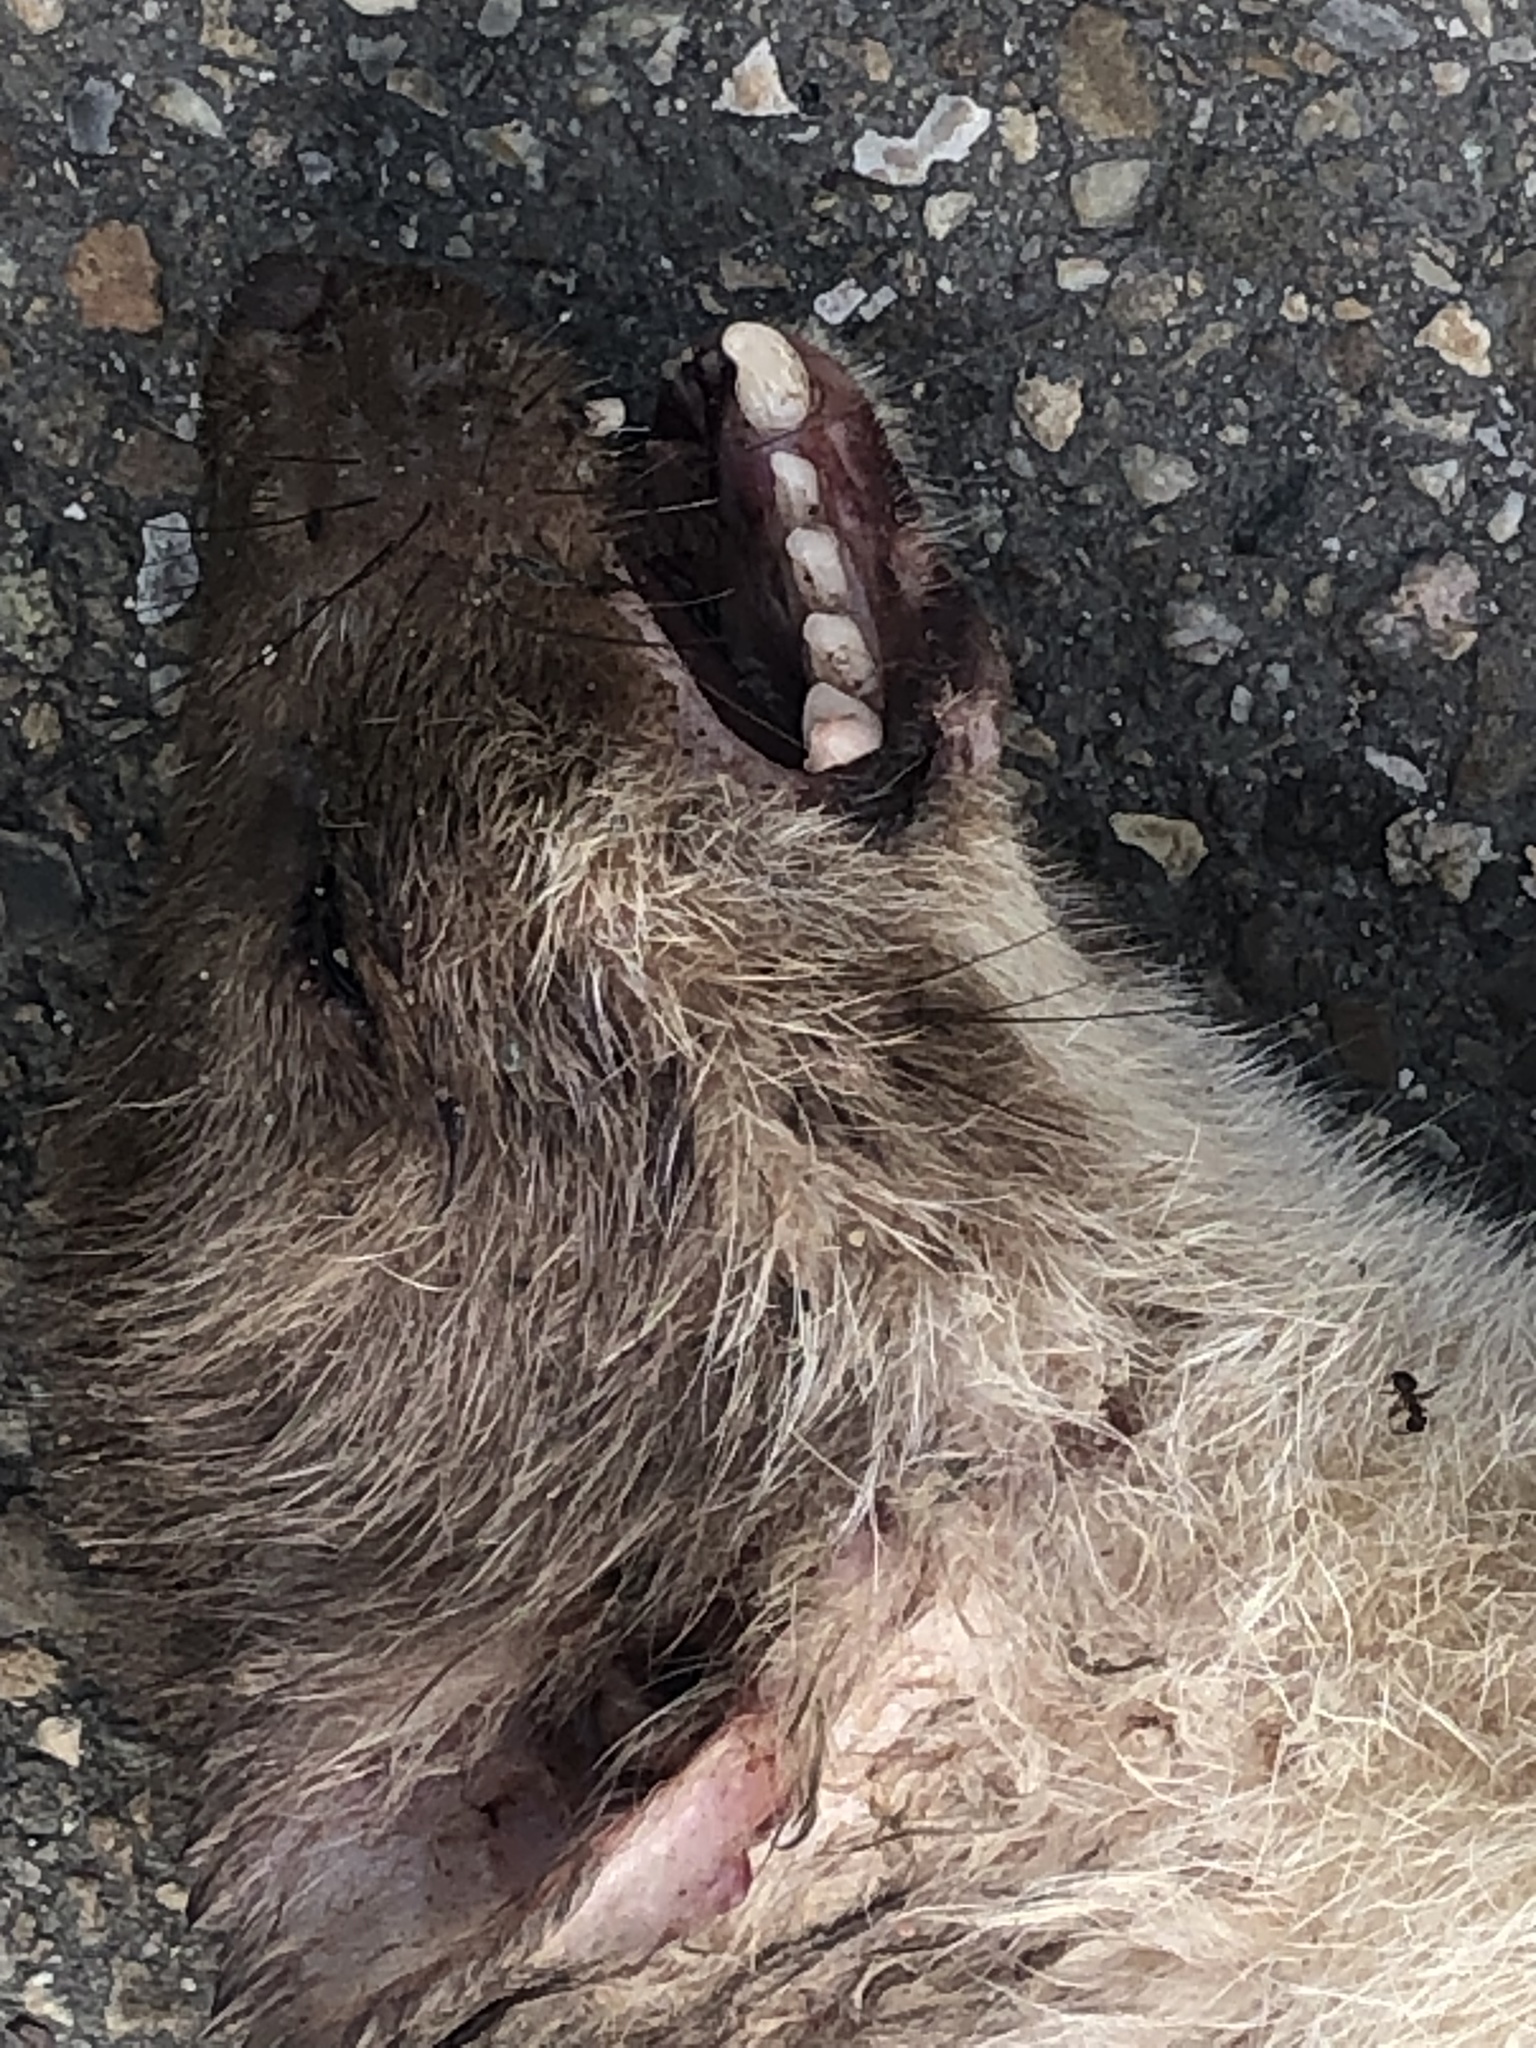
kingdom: Animalia
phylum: Chordata
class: Mammalia
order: Carnivora
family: Mustelidae
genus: Martes
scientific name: Martes foina
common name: Beech marten
